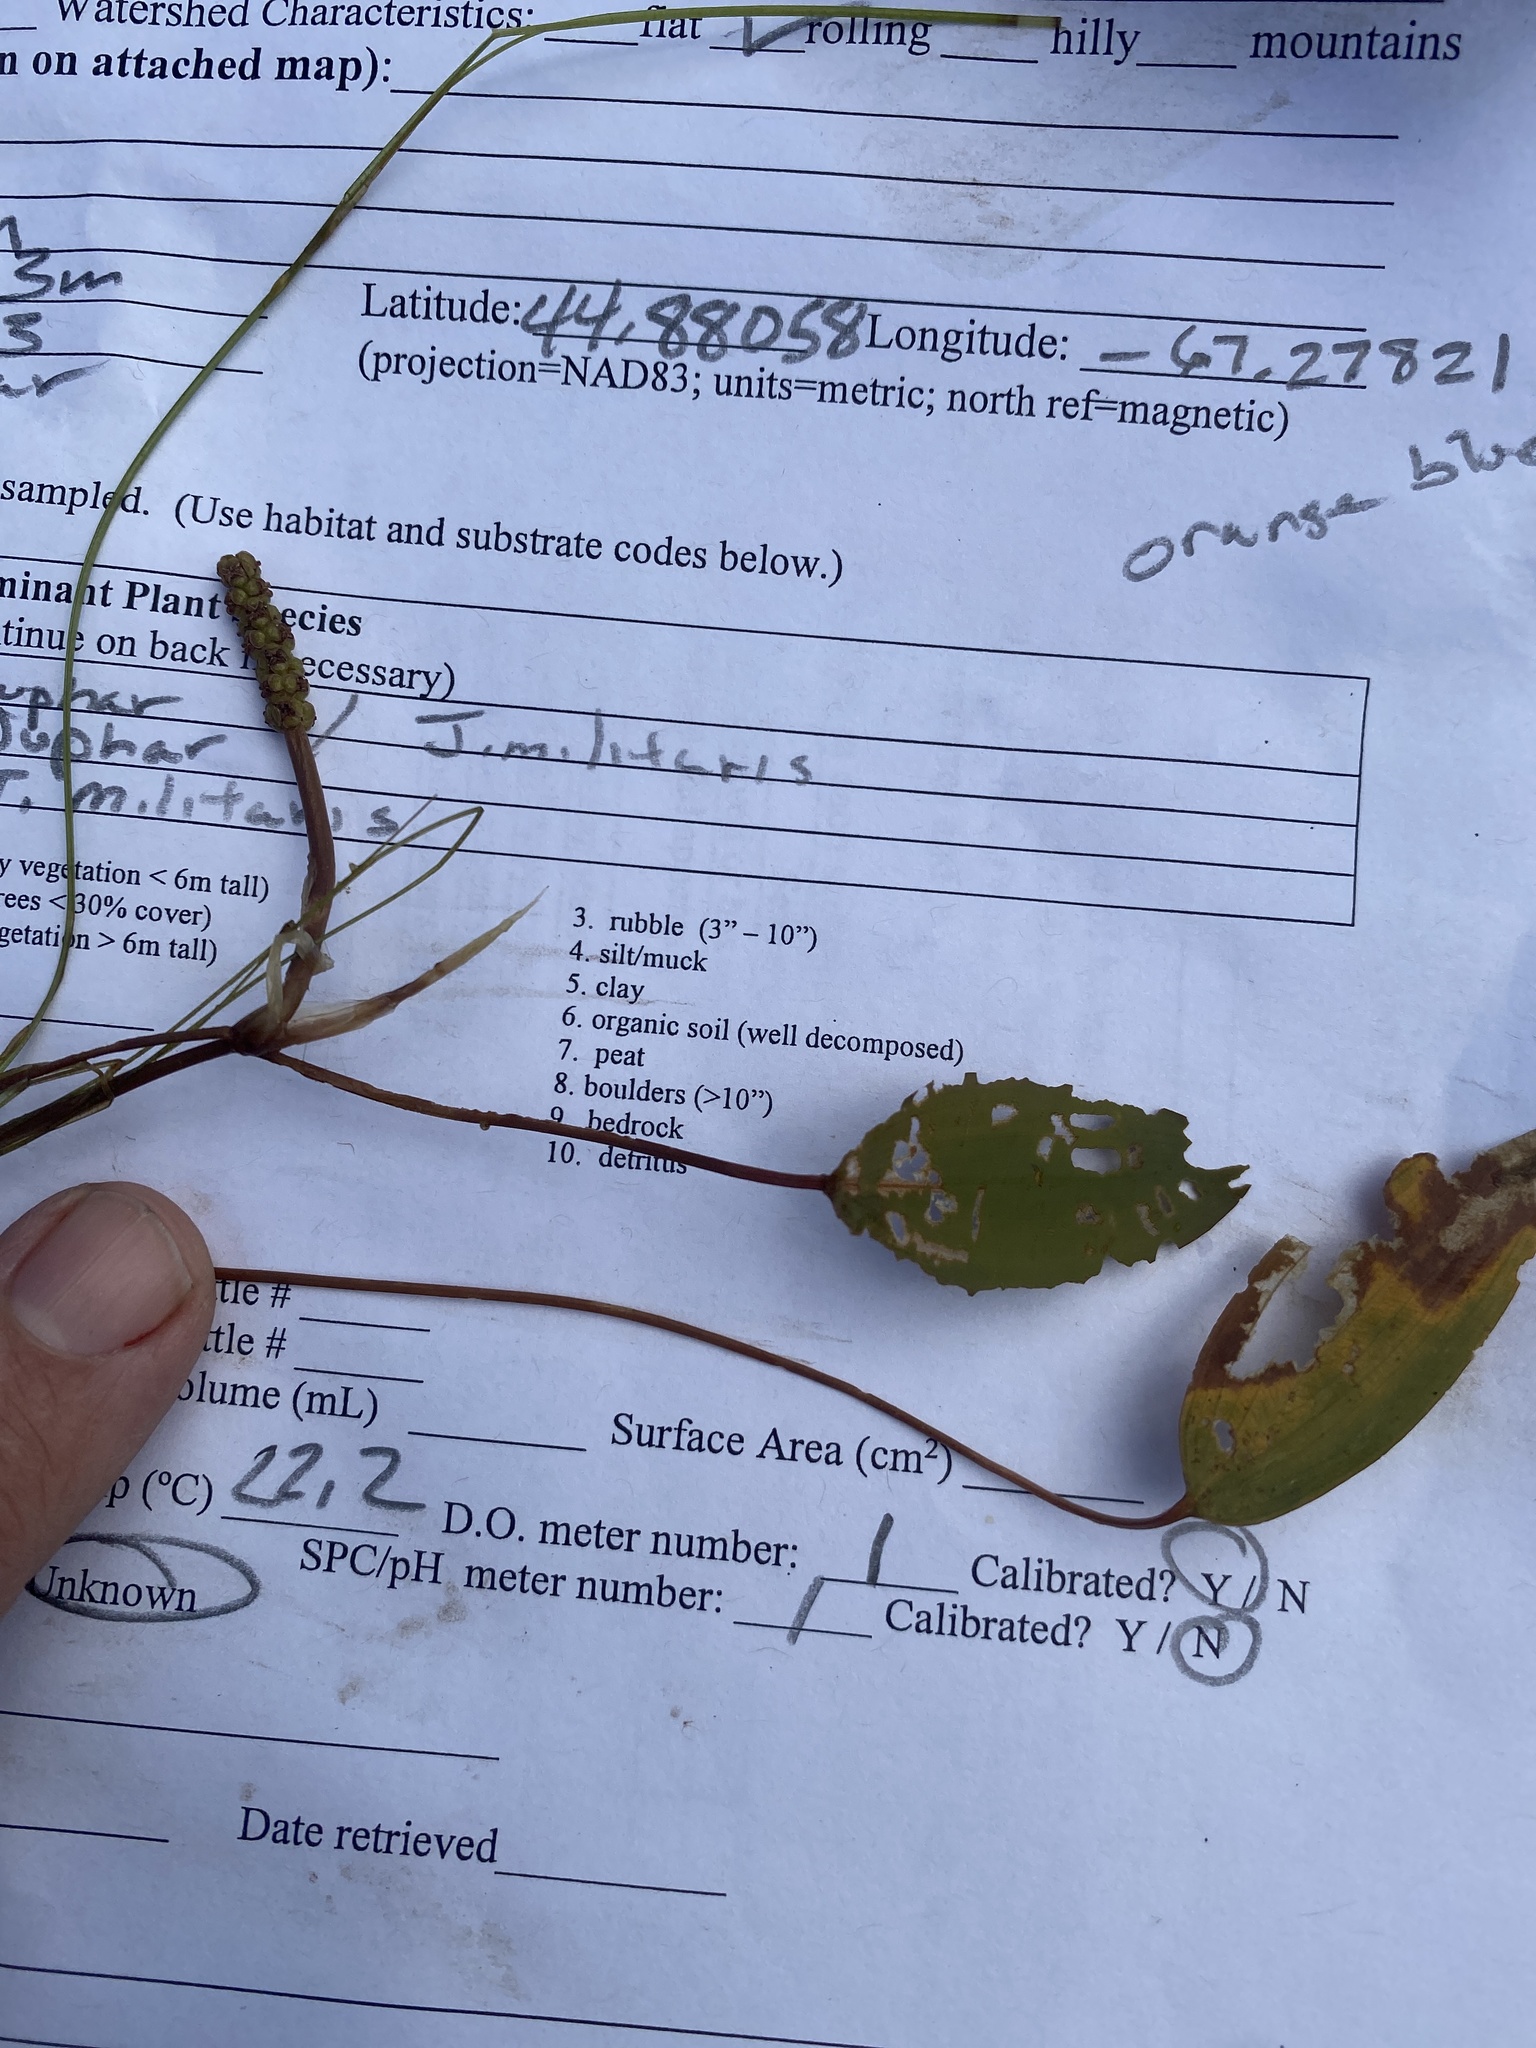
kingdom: Plantae
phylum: Tracheophyta
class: Liliopsida
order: Alismatales
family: Potamogetonaceae
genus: Potamogeton
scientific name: Potamogeton natans
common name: Broad-leaved pondweed
